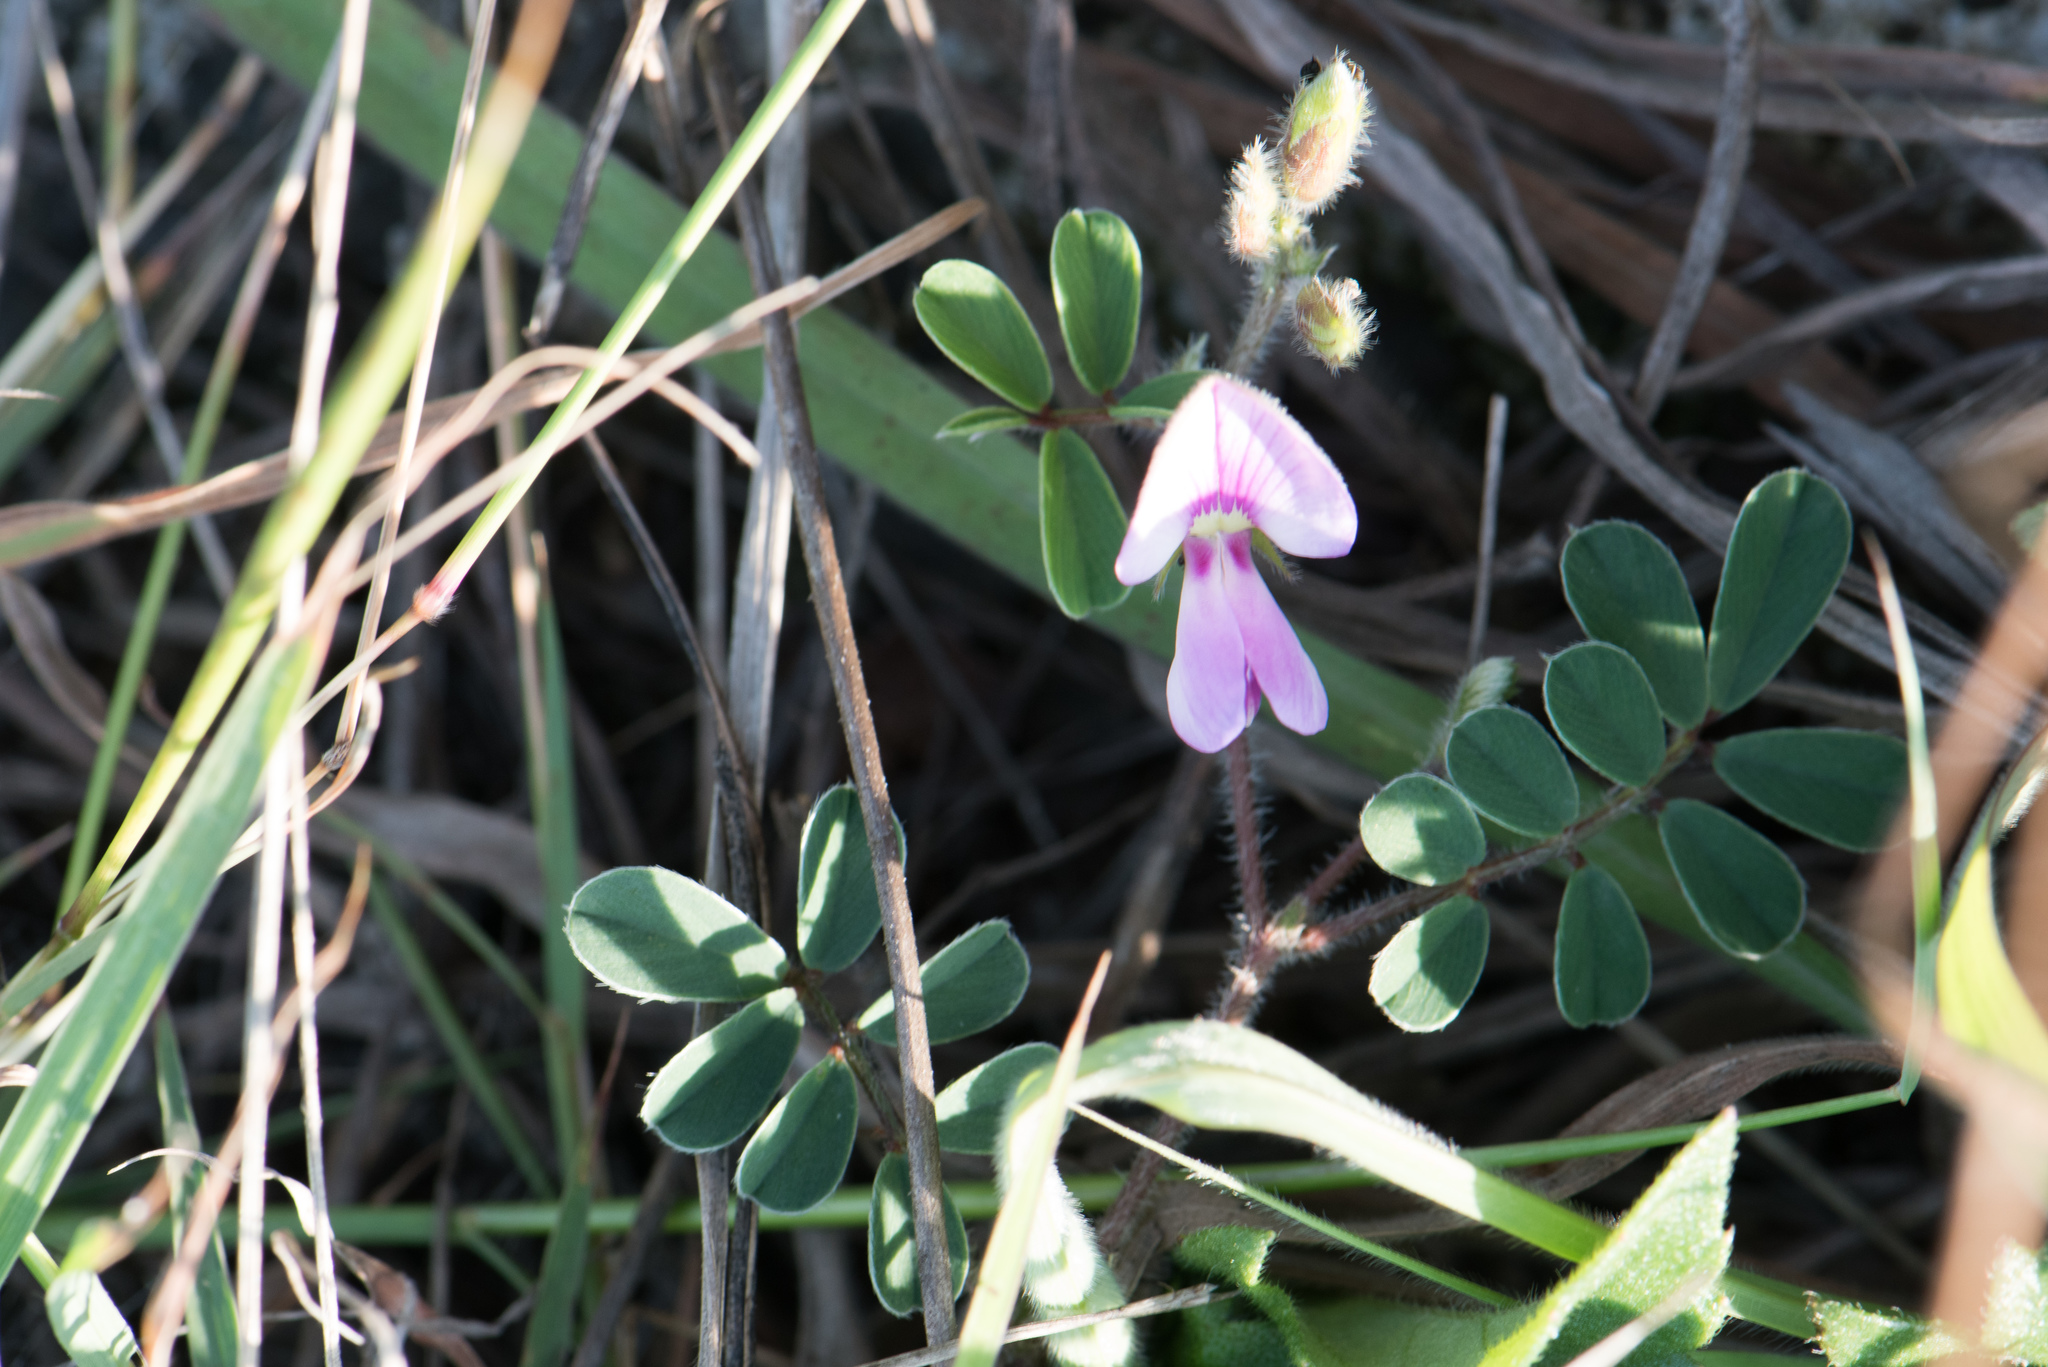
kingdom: Plantae
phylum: Tracheophyta
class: Magnoliopsida
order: Fabales
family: Fabaceae
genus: Tephrosia
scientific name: Tephrosia obovata
